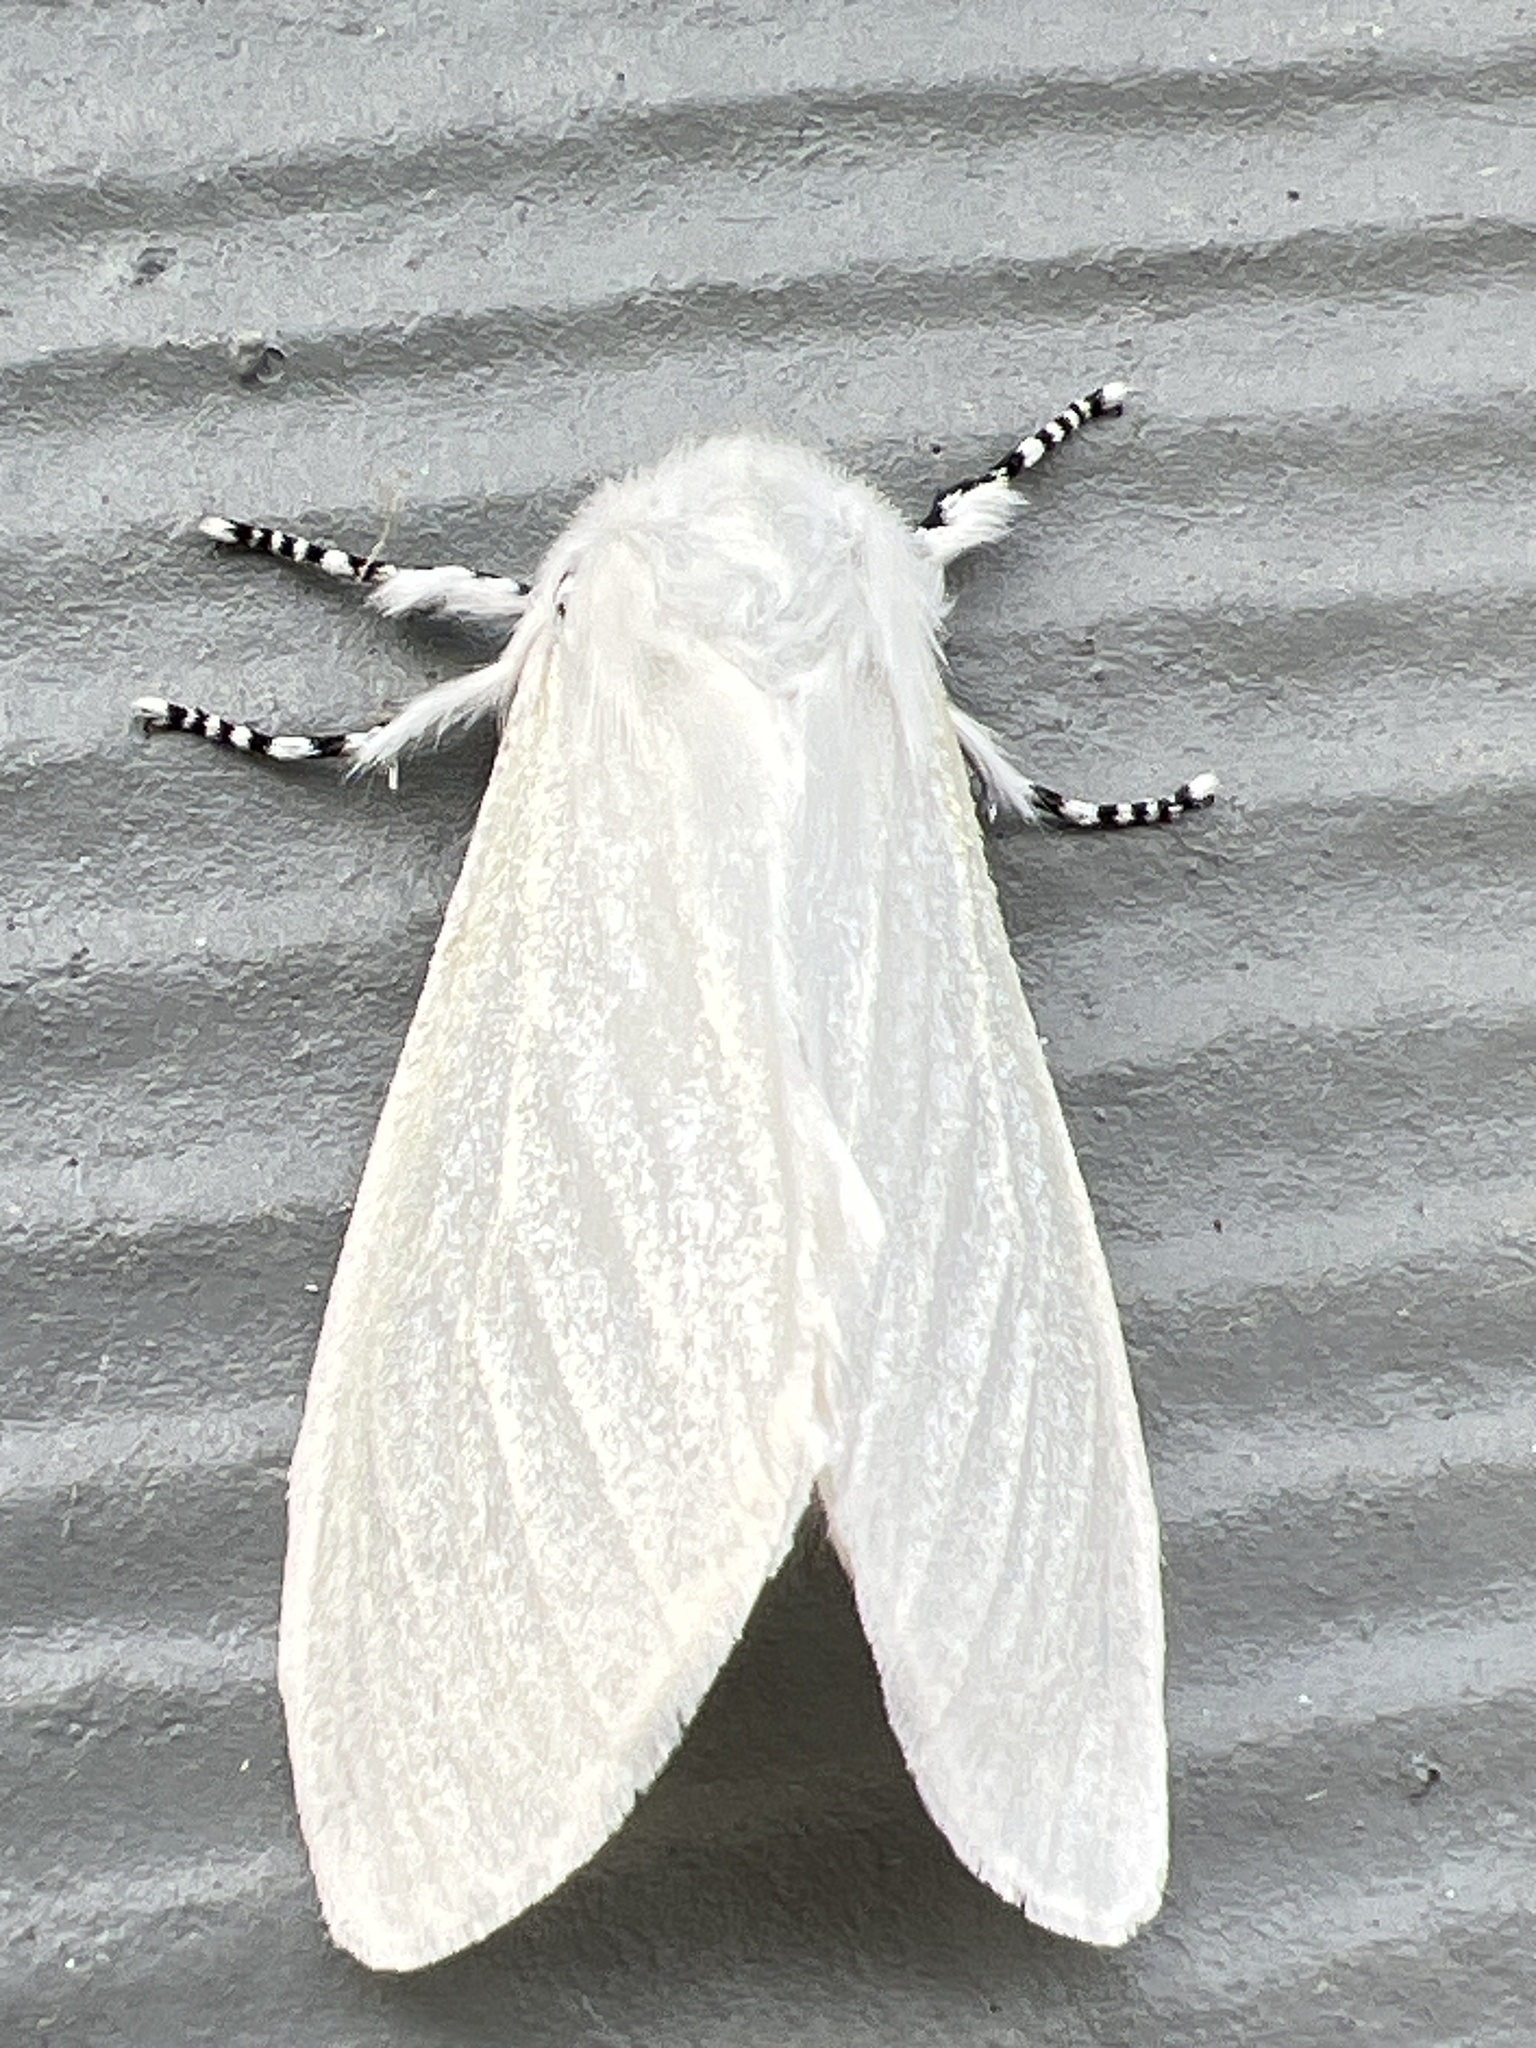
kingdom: Animalia
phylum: Arthropoda
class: Insecta
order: Lepidoptera
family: Erebidae
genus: Leucoma
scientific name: Leucoma salicis
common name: White satin moth
